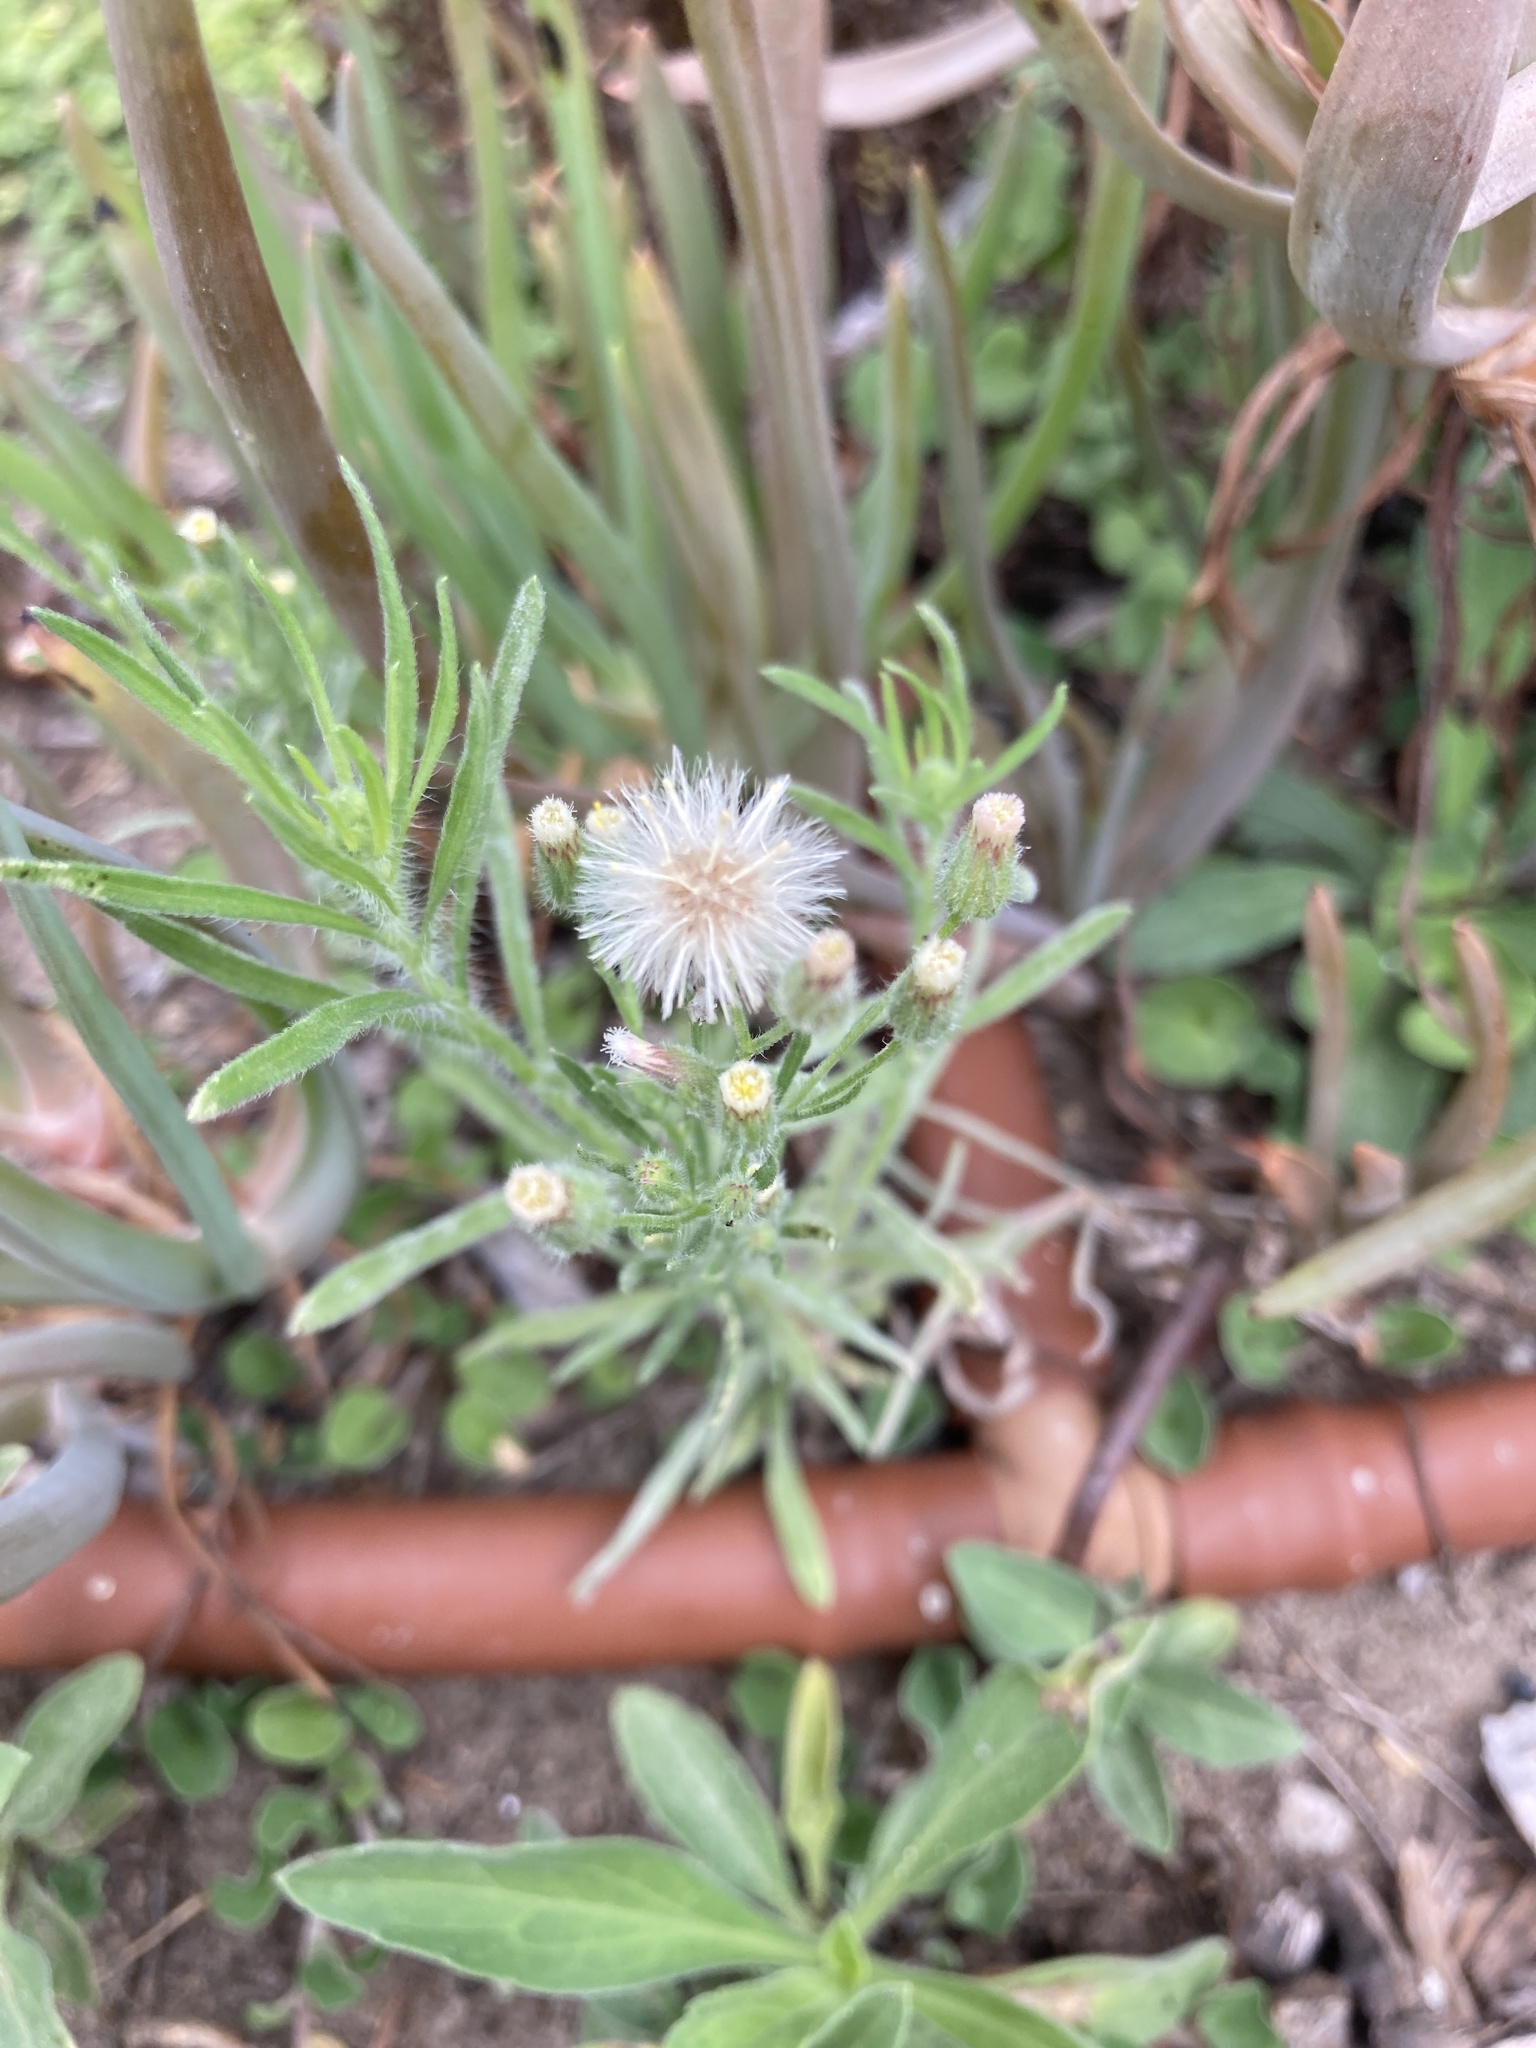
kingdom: Plantae
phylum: Tracheophyta
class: Magnoliopsida
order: Asterales
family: Asteraceae
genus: Erigeron
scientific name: Erigeron bonariensis
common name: Argentine fleabane
